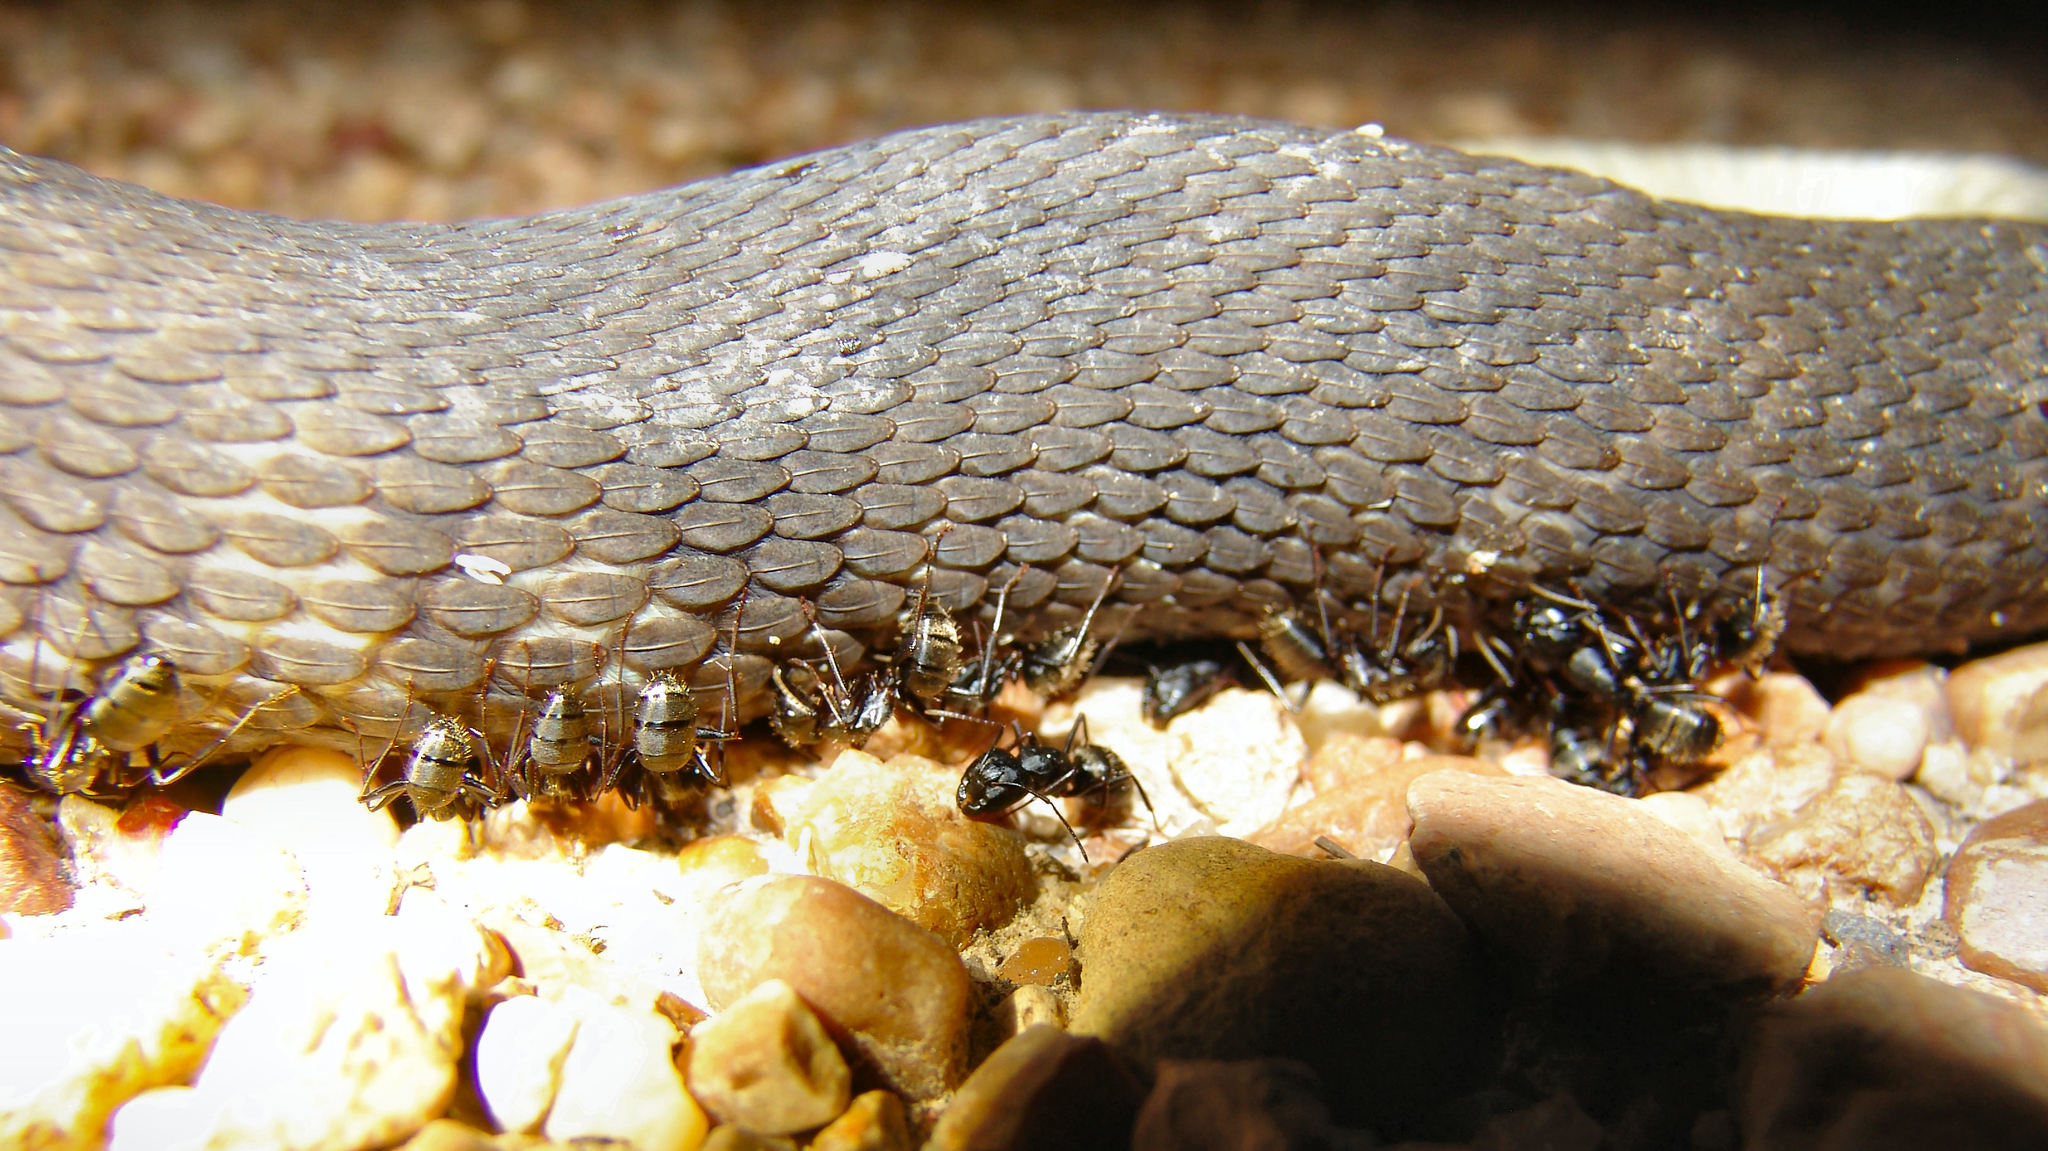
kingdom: Animalia
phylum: Arthropoda
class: Insecta
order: Hymenoptera
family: Formicidae
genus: Camponotus
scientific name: Camponotus pennsylvanicus
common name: Black carpenter ant
